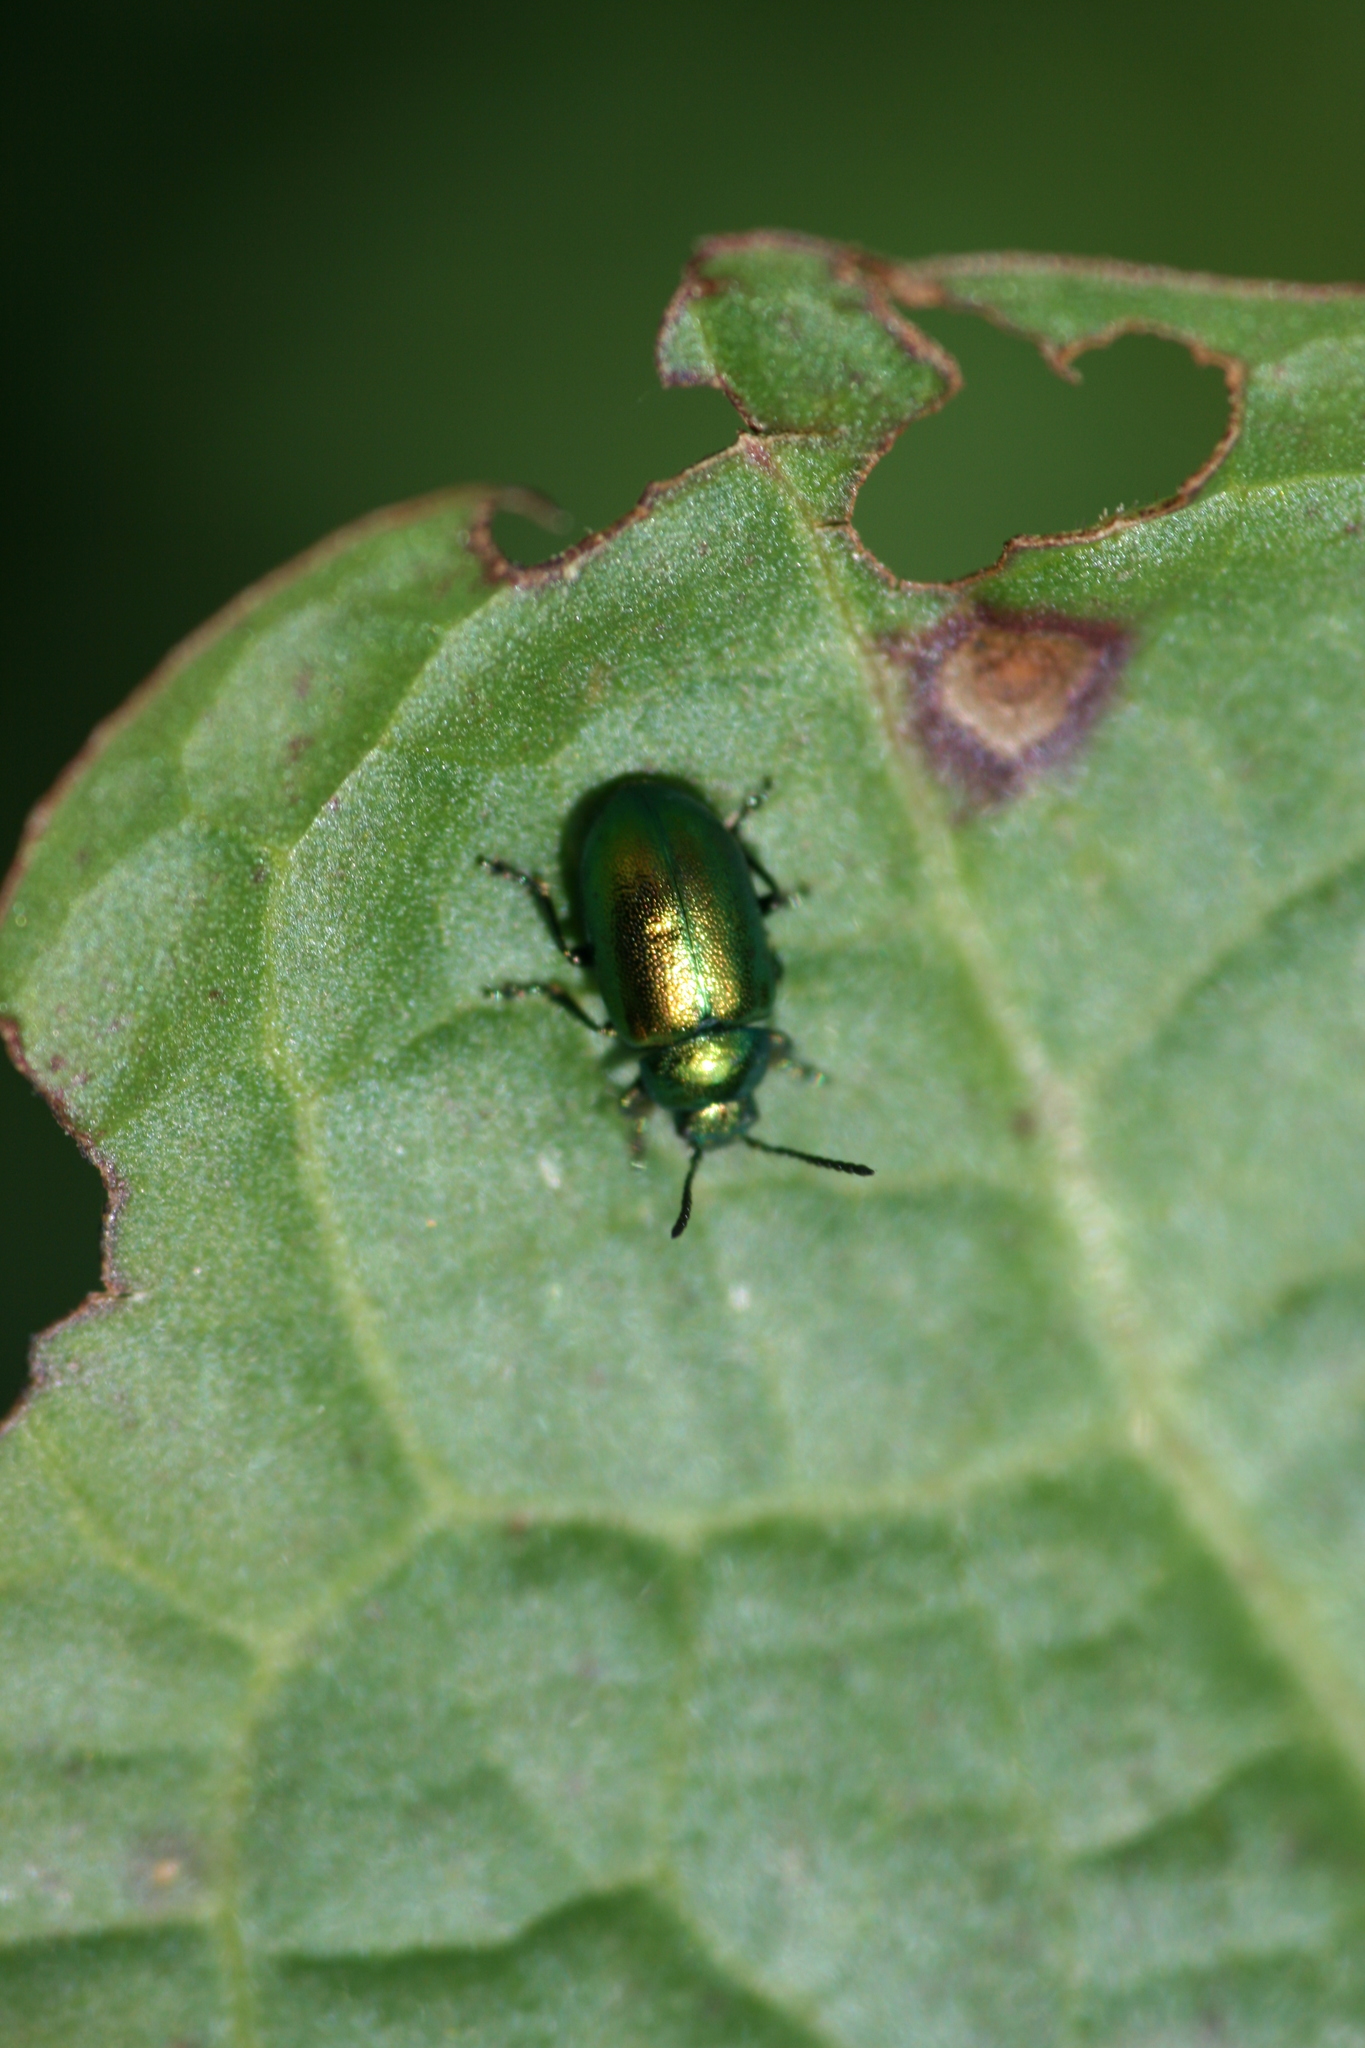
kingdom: Animalia
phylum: Arthropoda
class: Insecta
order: Coleoptera
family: Chrysomelidae
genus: Gastrophysa
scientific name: Gastrophysa viridula
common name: Green dock beetle
